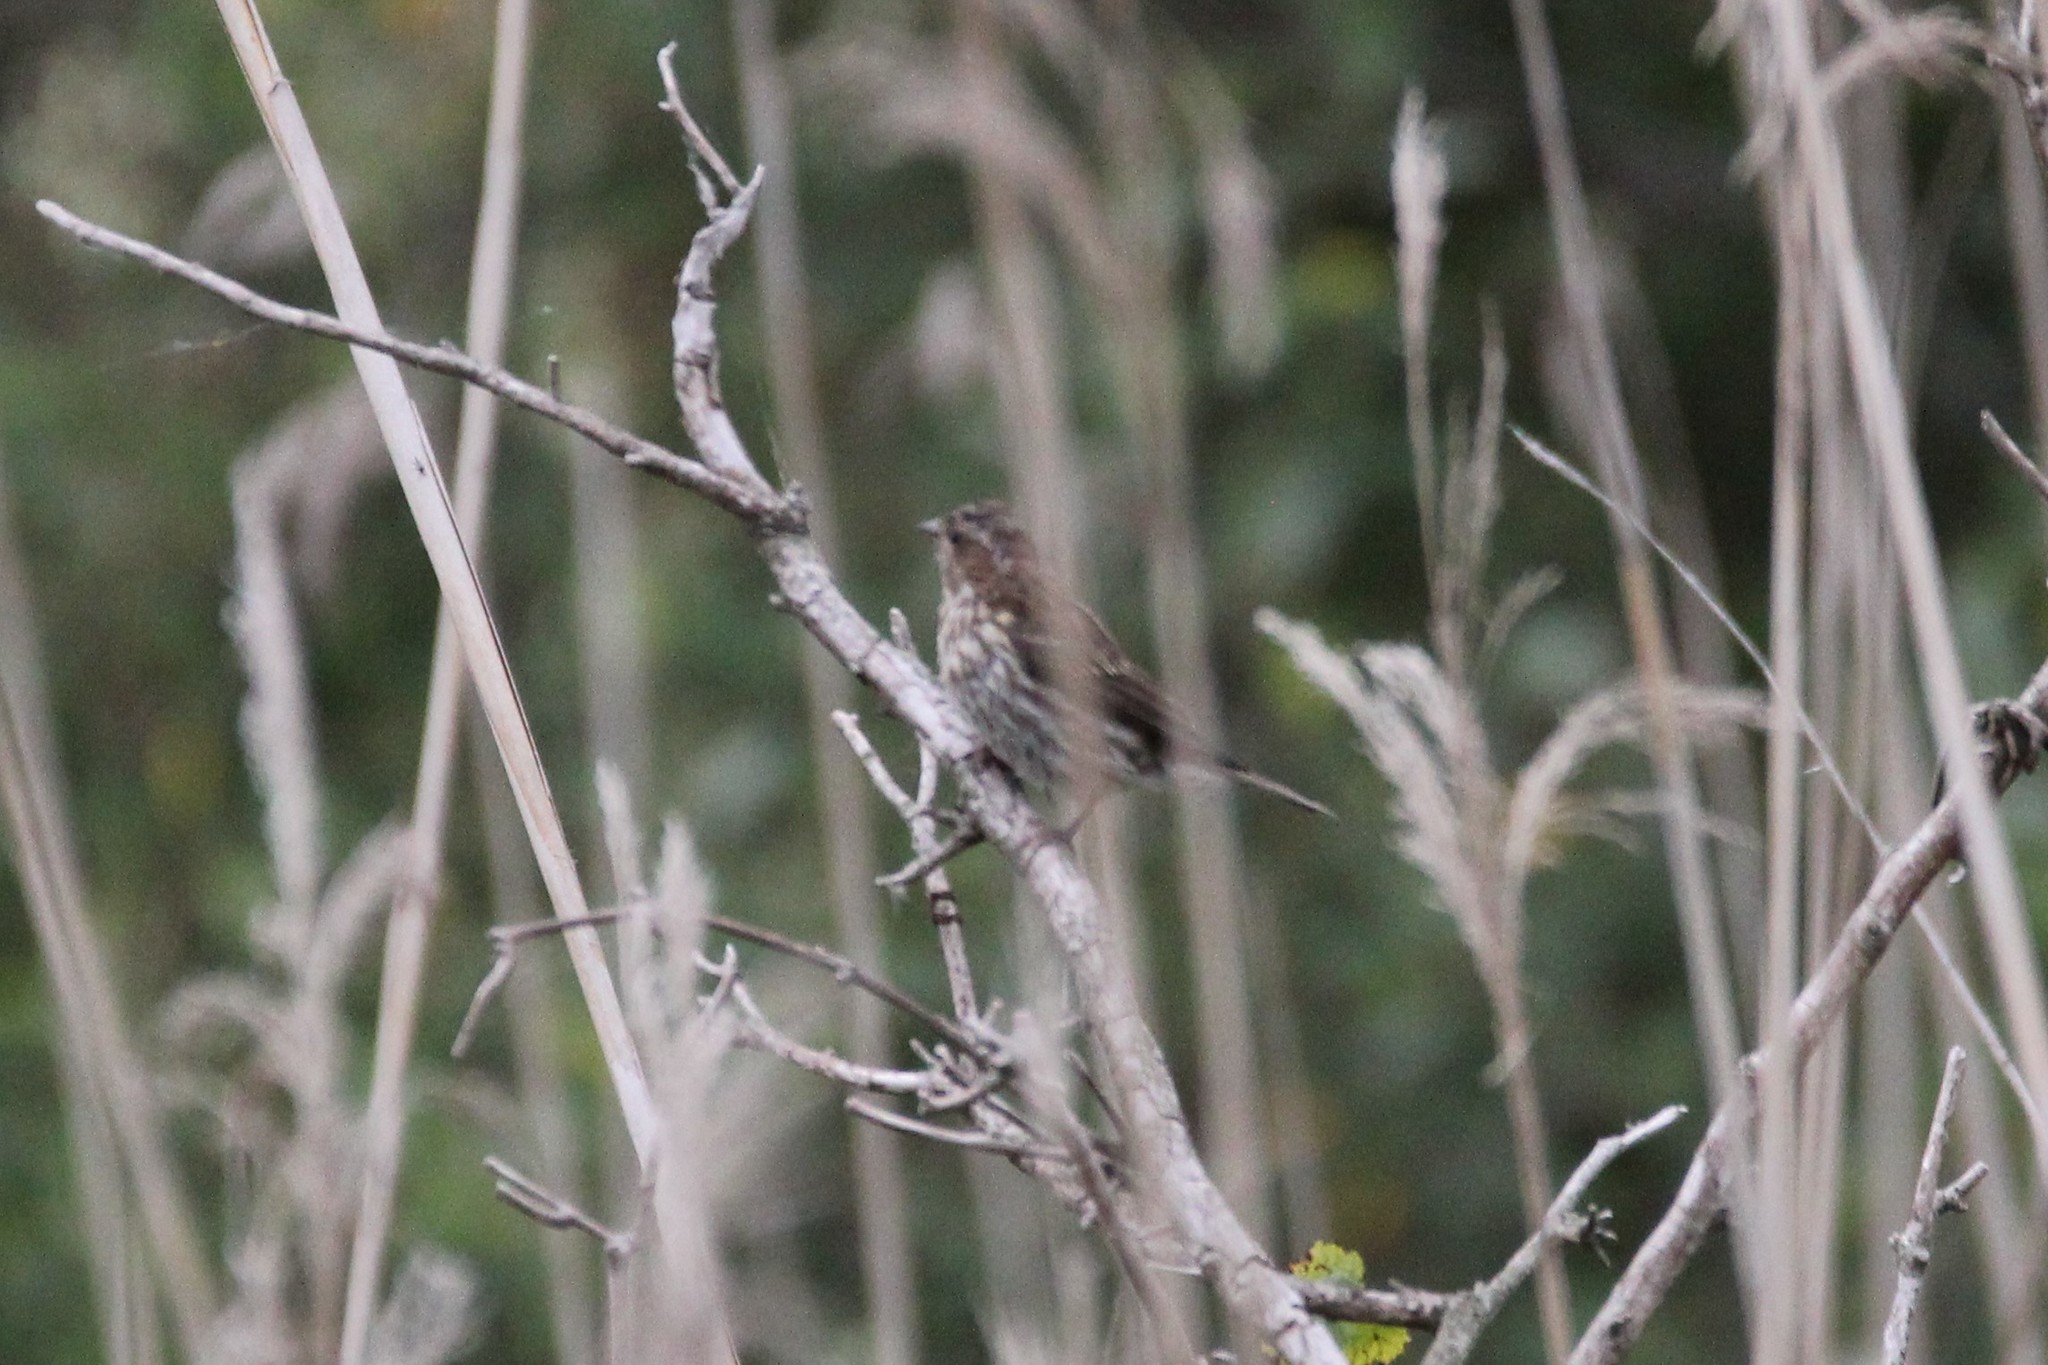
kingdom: Animalia
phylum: Chordata
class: Aves
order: Passeriformes
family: Fringillidae
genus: Haemorhous
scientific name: Haemorhous purpureus
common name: Purple finch
